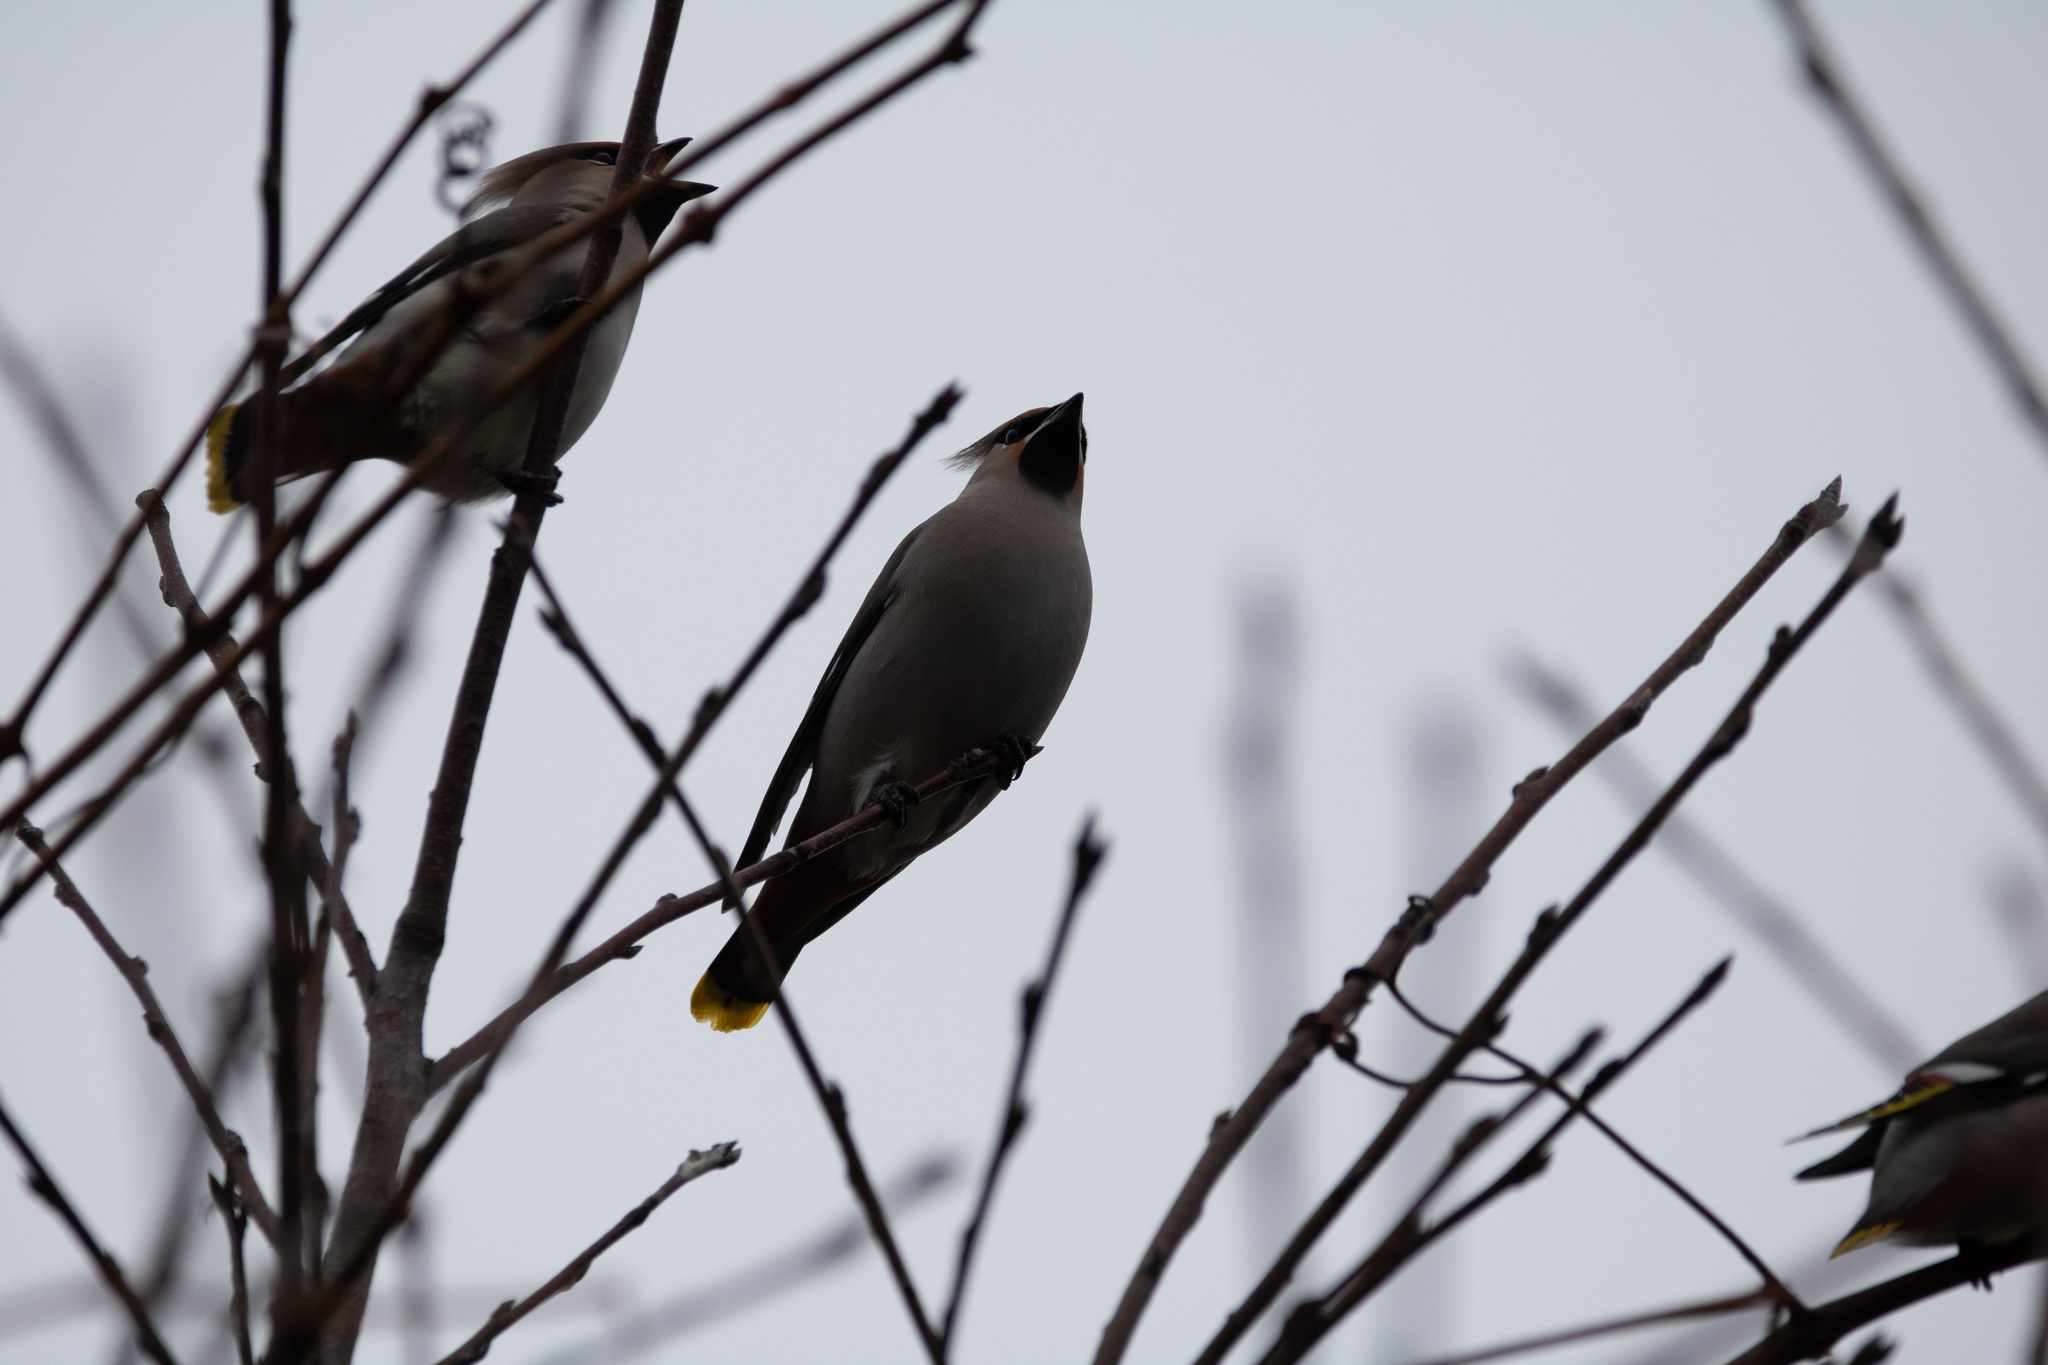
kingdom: Animalia
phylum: Chordata
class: Aves
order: Passeriformes
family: Bombycillidae
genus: Bombycilla
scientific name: Bombycilla garrulus
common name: Bohemian waxwing
